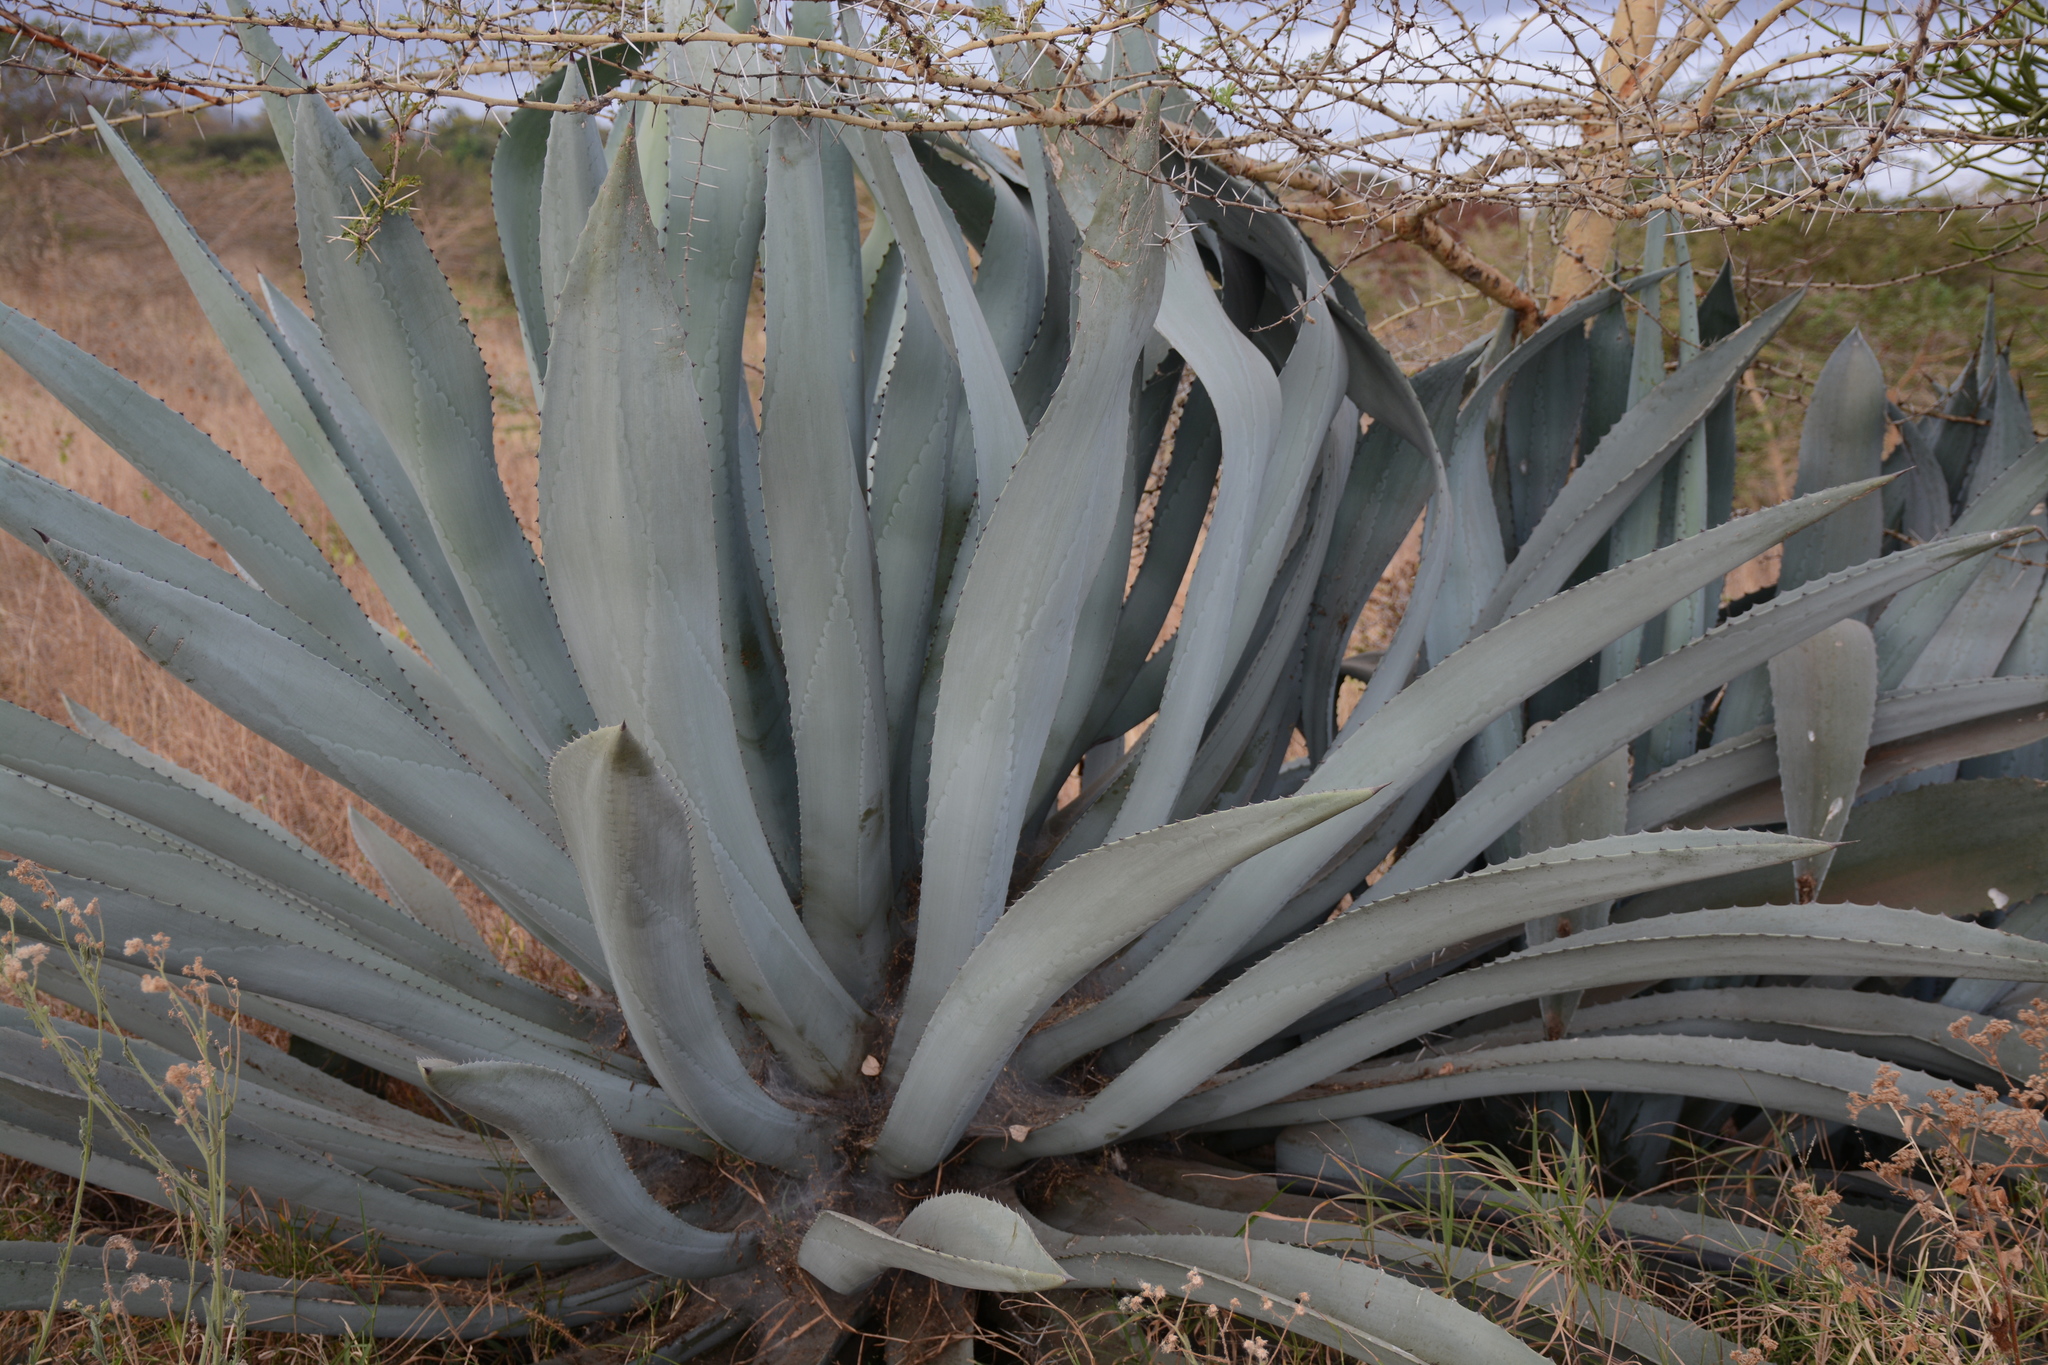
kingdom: Plantae
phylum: Tracheophyta
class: Liliopsida
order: Asparagales
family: Asparagaceae
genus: Agave
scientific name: Agave americana
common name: Centuryplant
